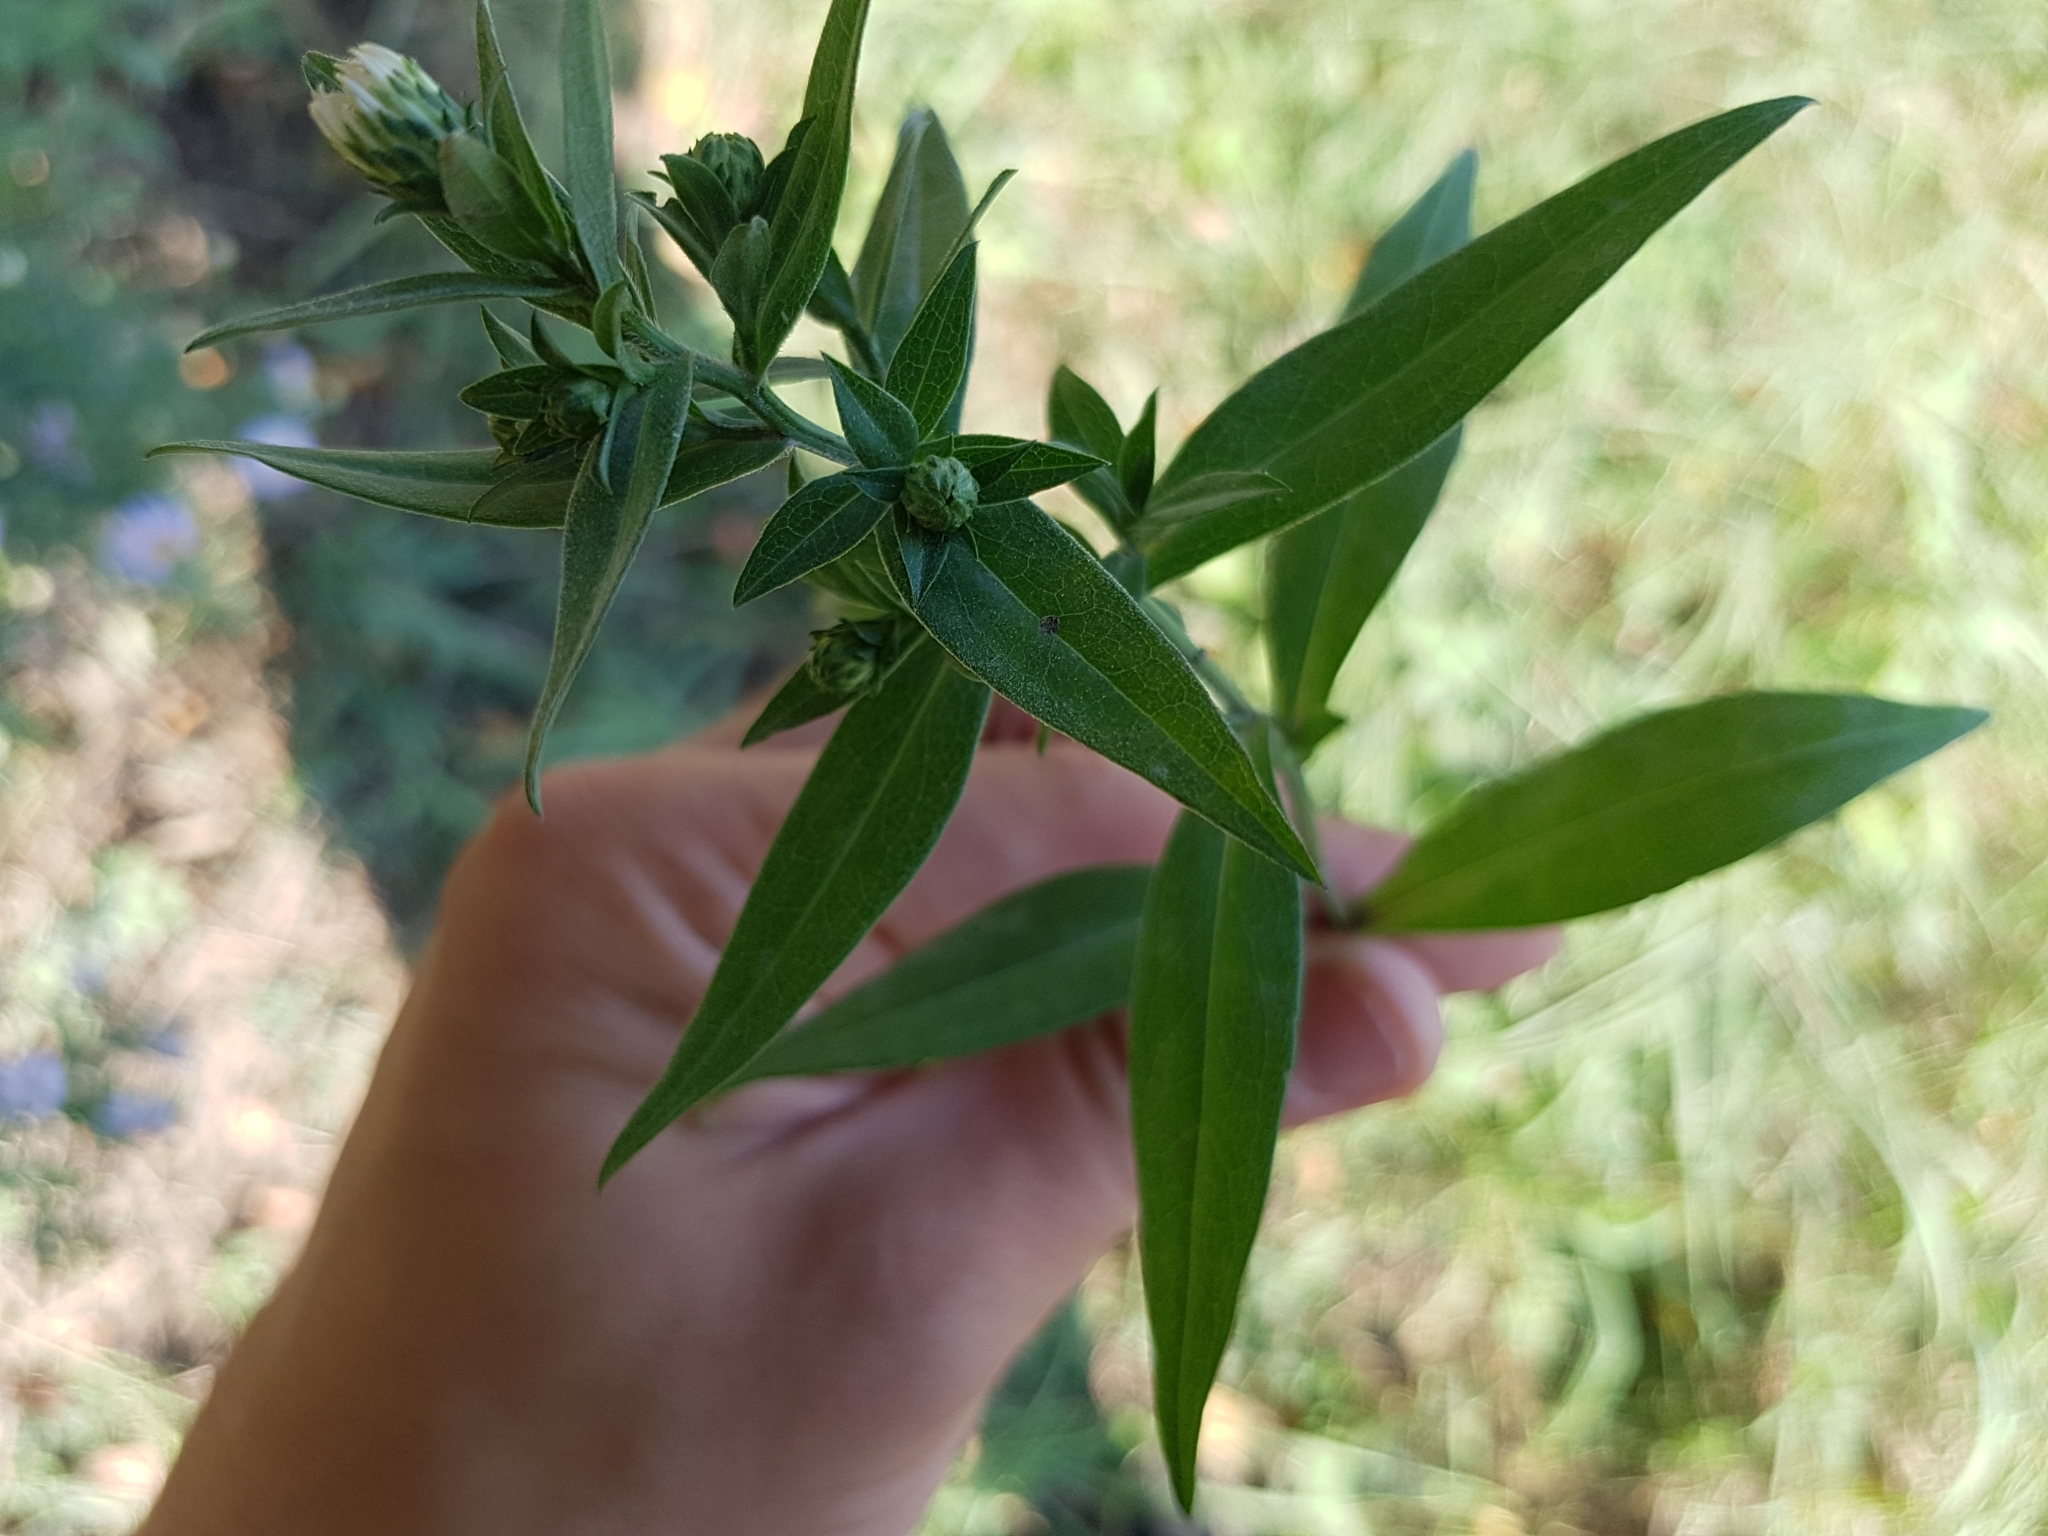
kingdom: Plantae
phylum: Tracheophyta
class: Magnoliopsida
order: Asterales
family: Asteraceae
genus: Symphyotrichum
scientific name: Symphyotrichum novi-belgii
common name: Michaelmas daisy
